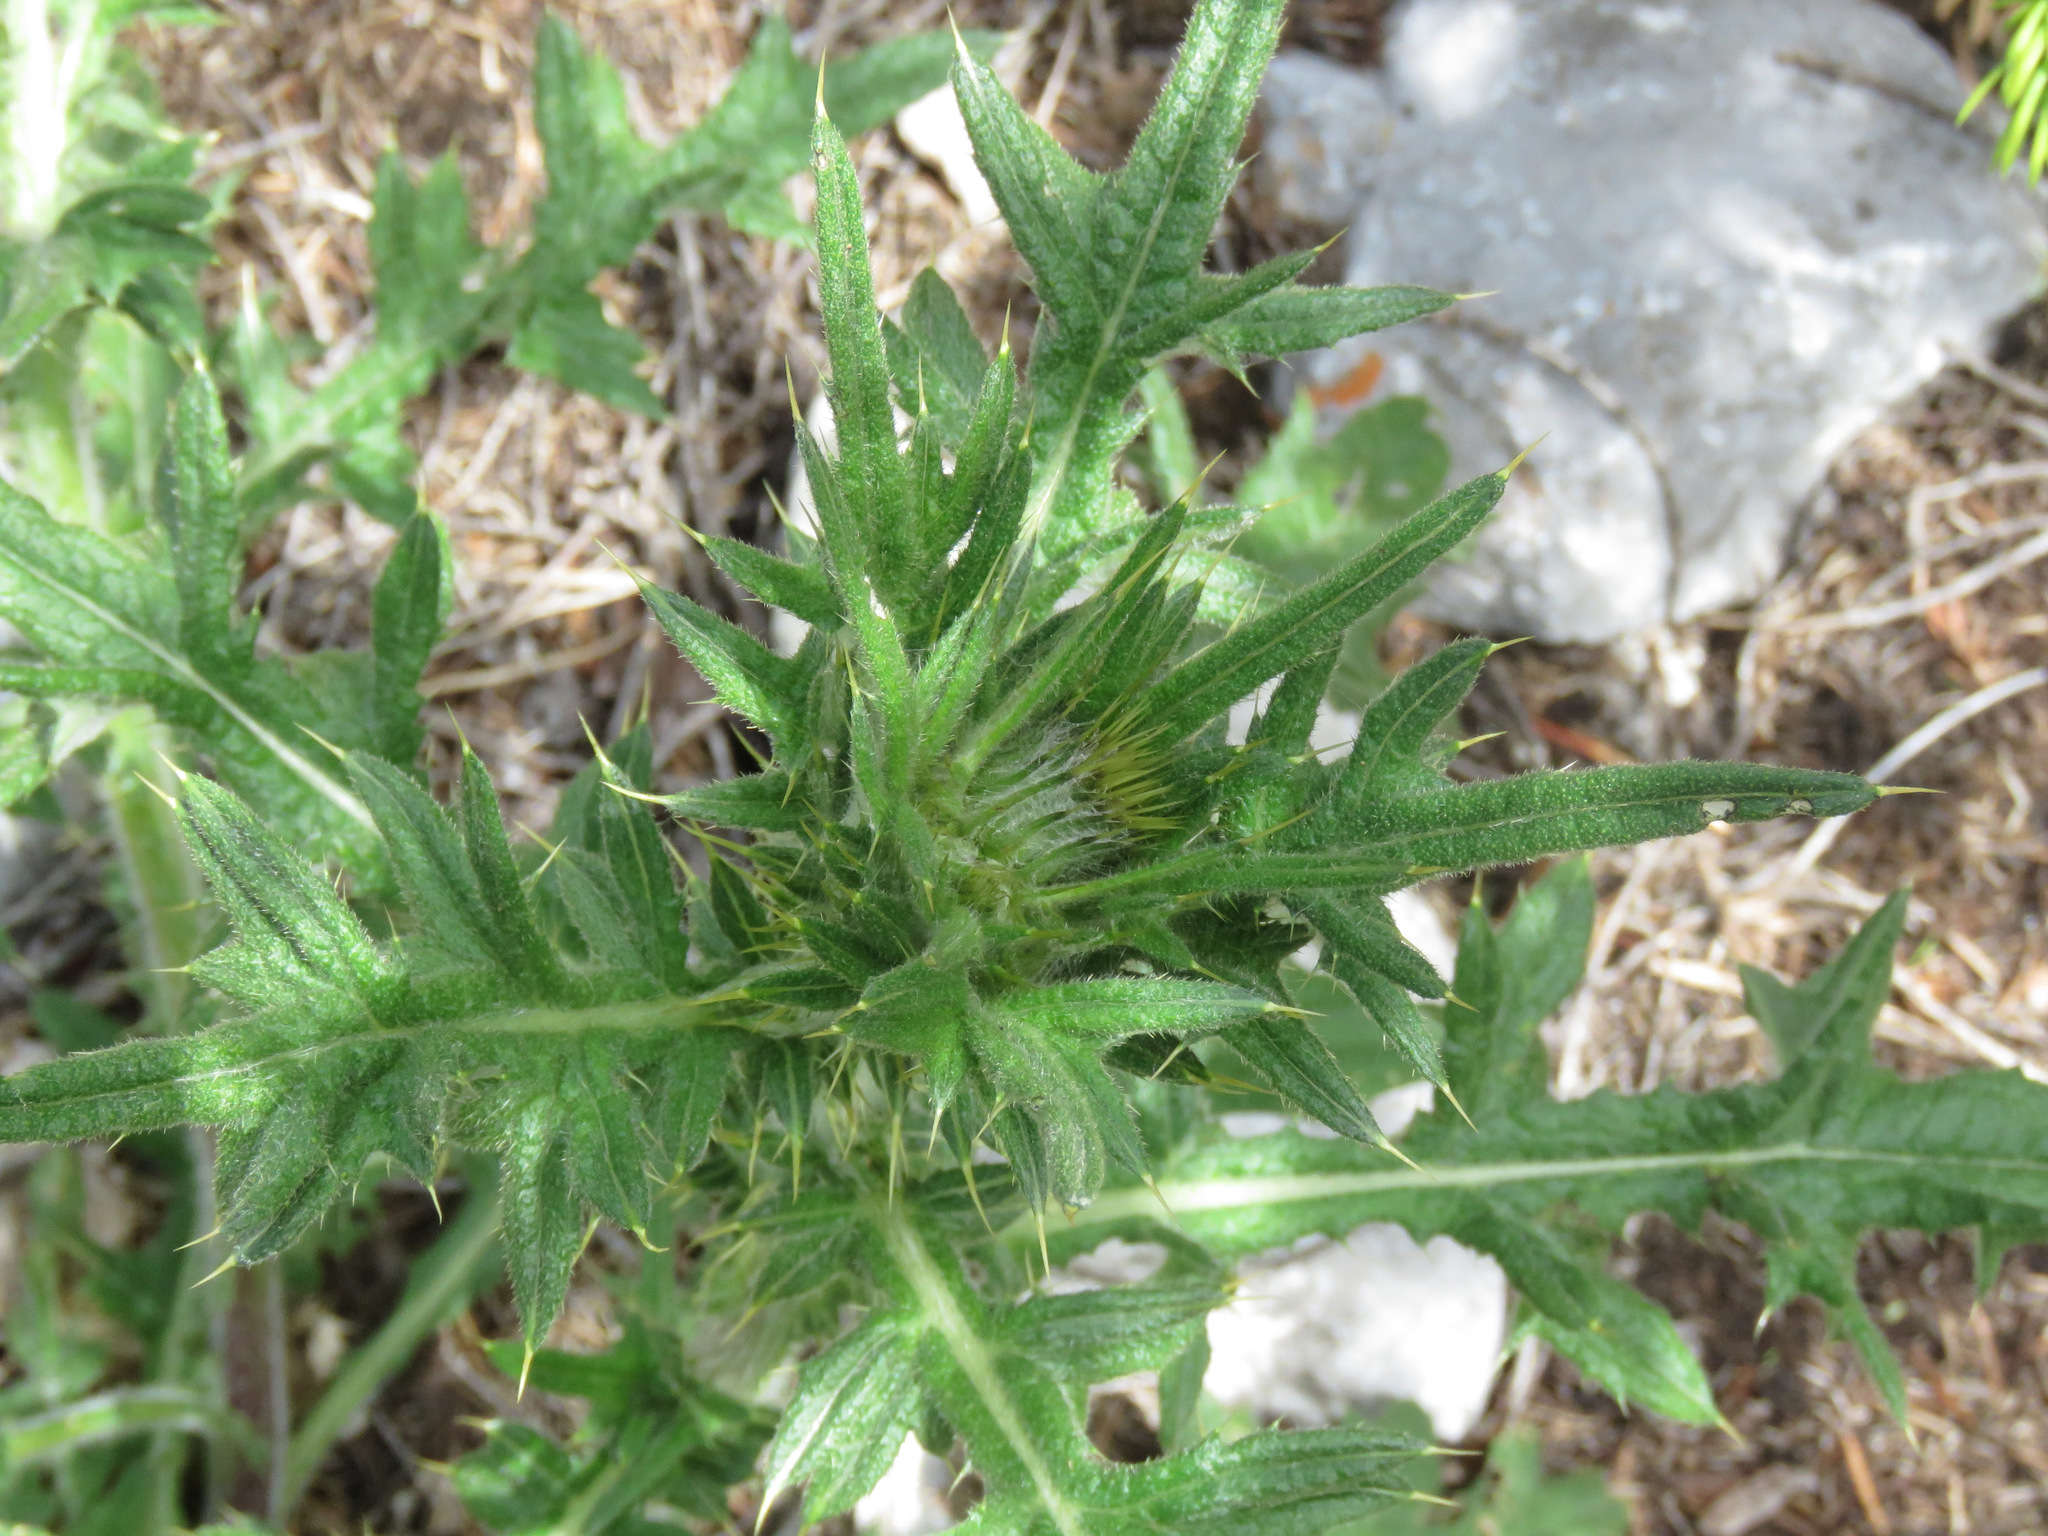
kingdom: Plantae
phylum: Tracheophyta
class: Magnoliopsida
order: Asterales
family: Asteraceae
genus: Cirsium
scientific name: Cirsium vulgare
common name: Bull thistle
